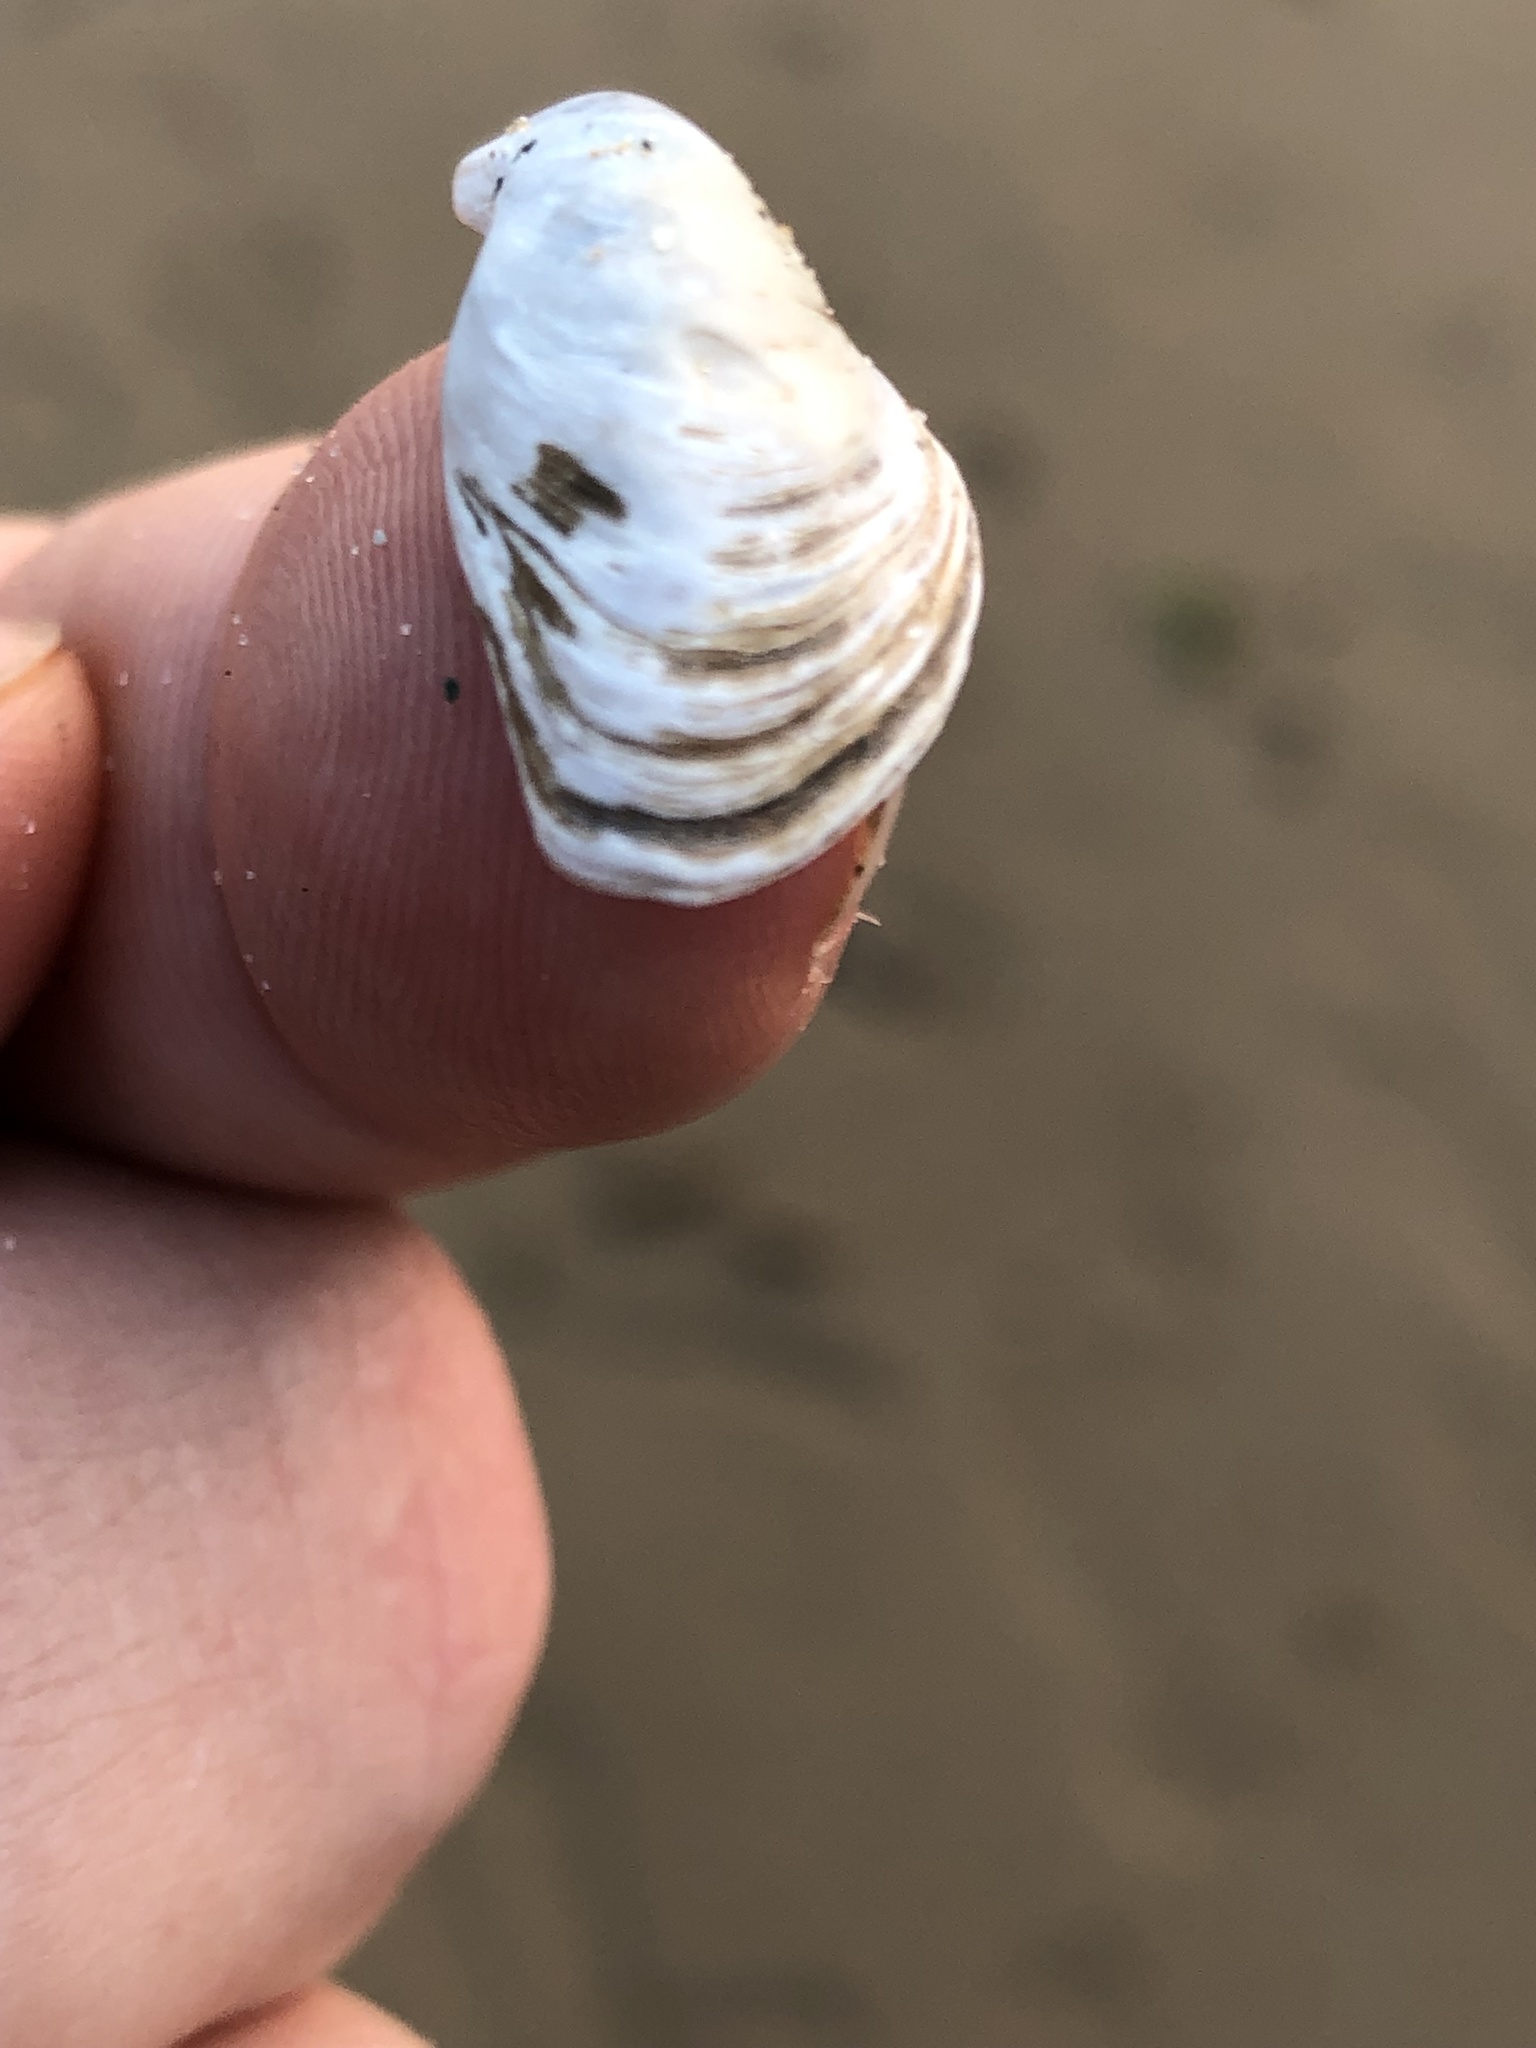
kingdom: Animalia
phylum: Mollusca
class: Bivalvia
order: Myida
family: Dreissenidae
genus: Dreissena
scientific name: Dreissena bugensis
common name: Quagga mussel
